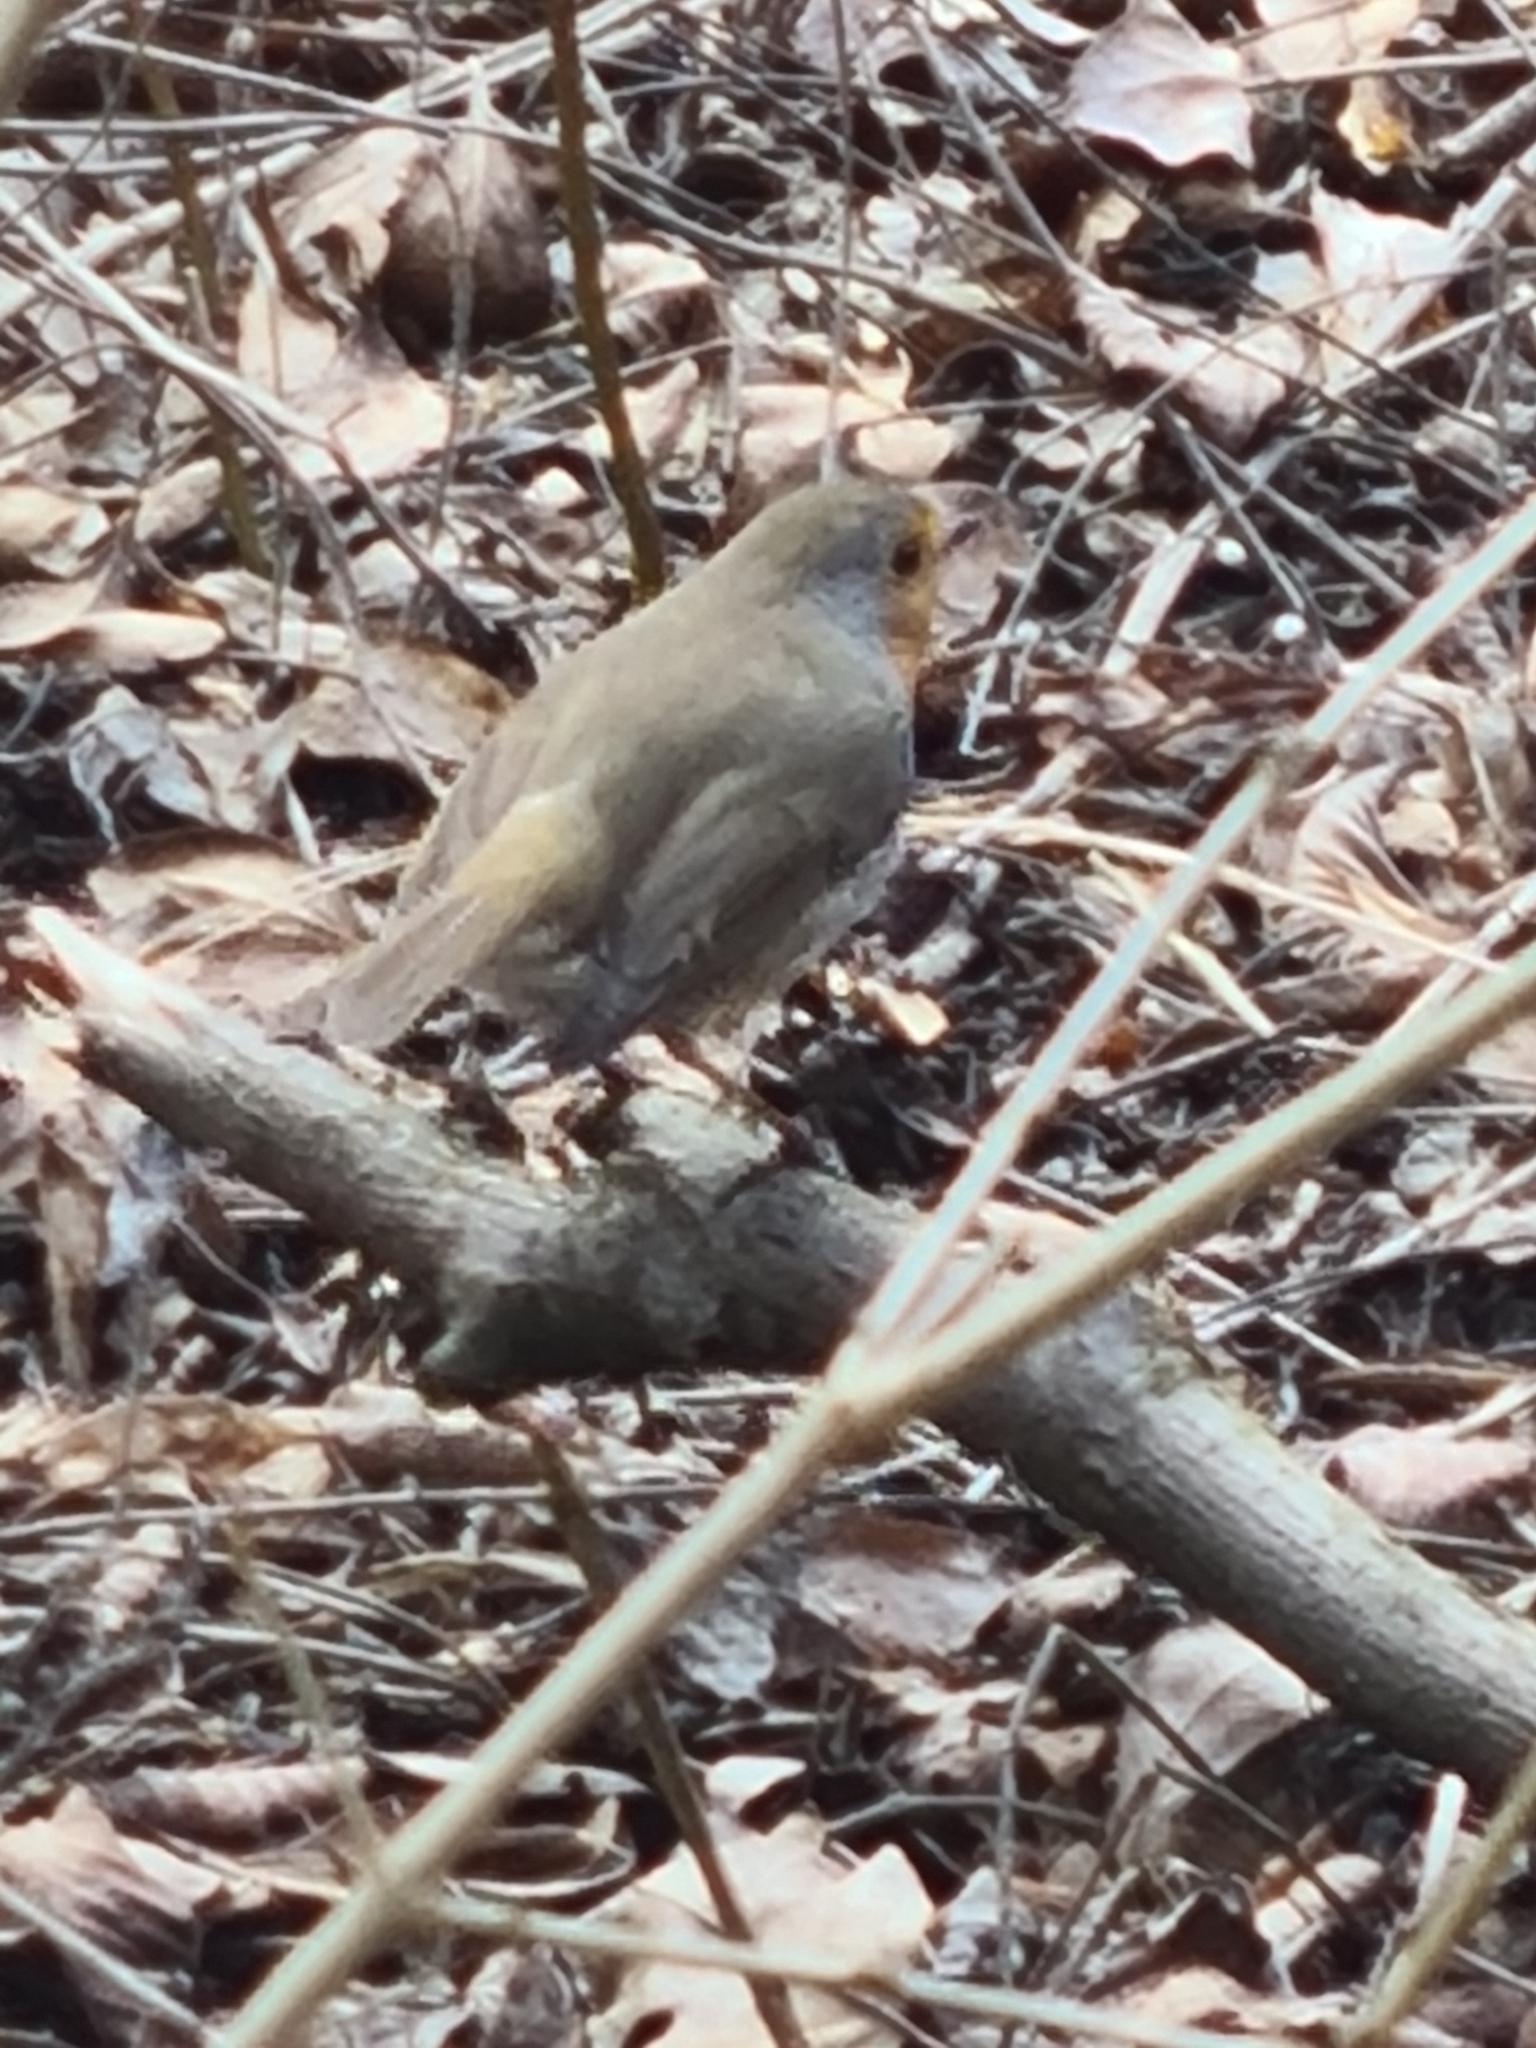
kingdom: Animalia
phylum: Chordata
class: Aves
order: Passeriformes
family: Muscicapidae
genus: Erithacus
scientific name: Erithacus rubecula
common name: European robin
